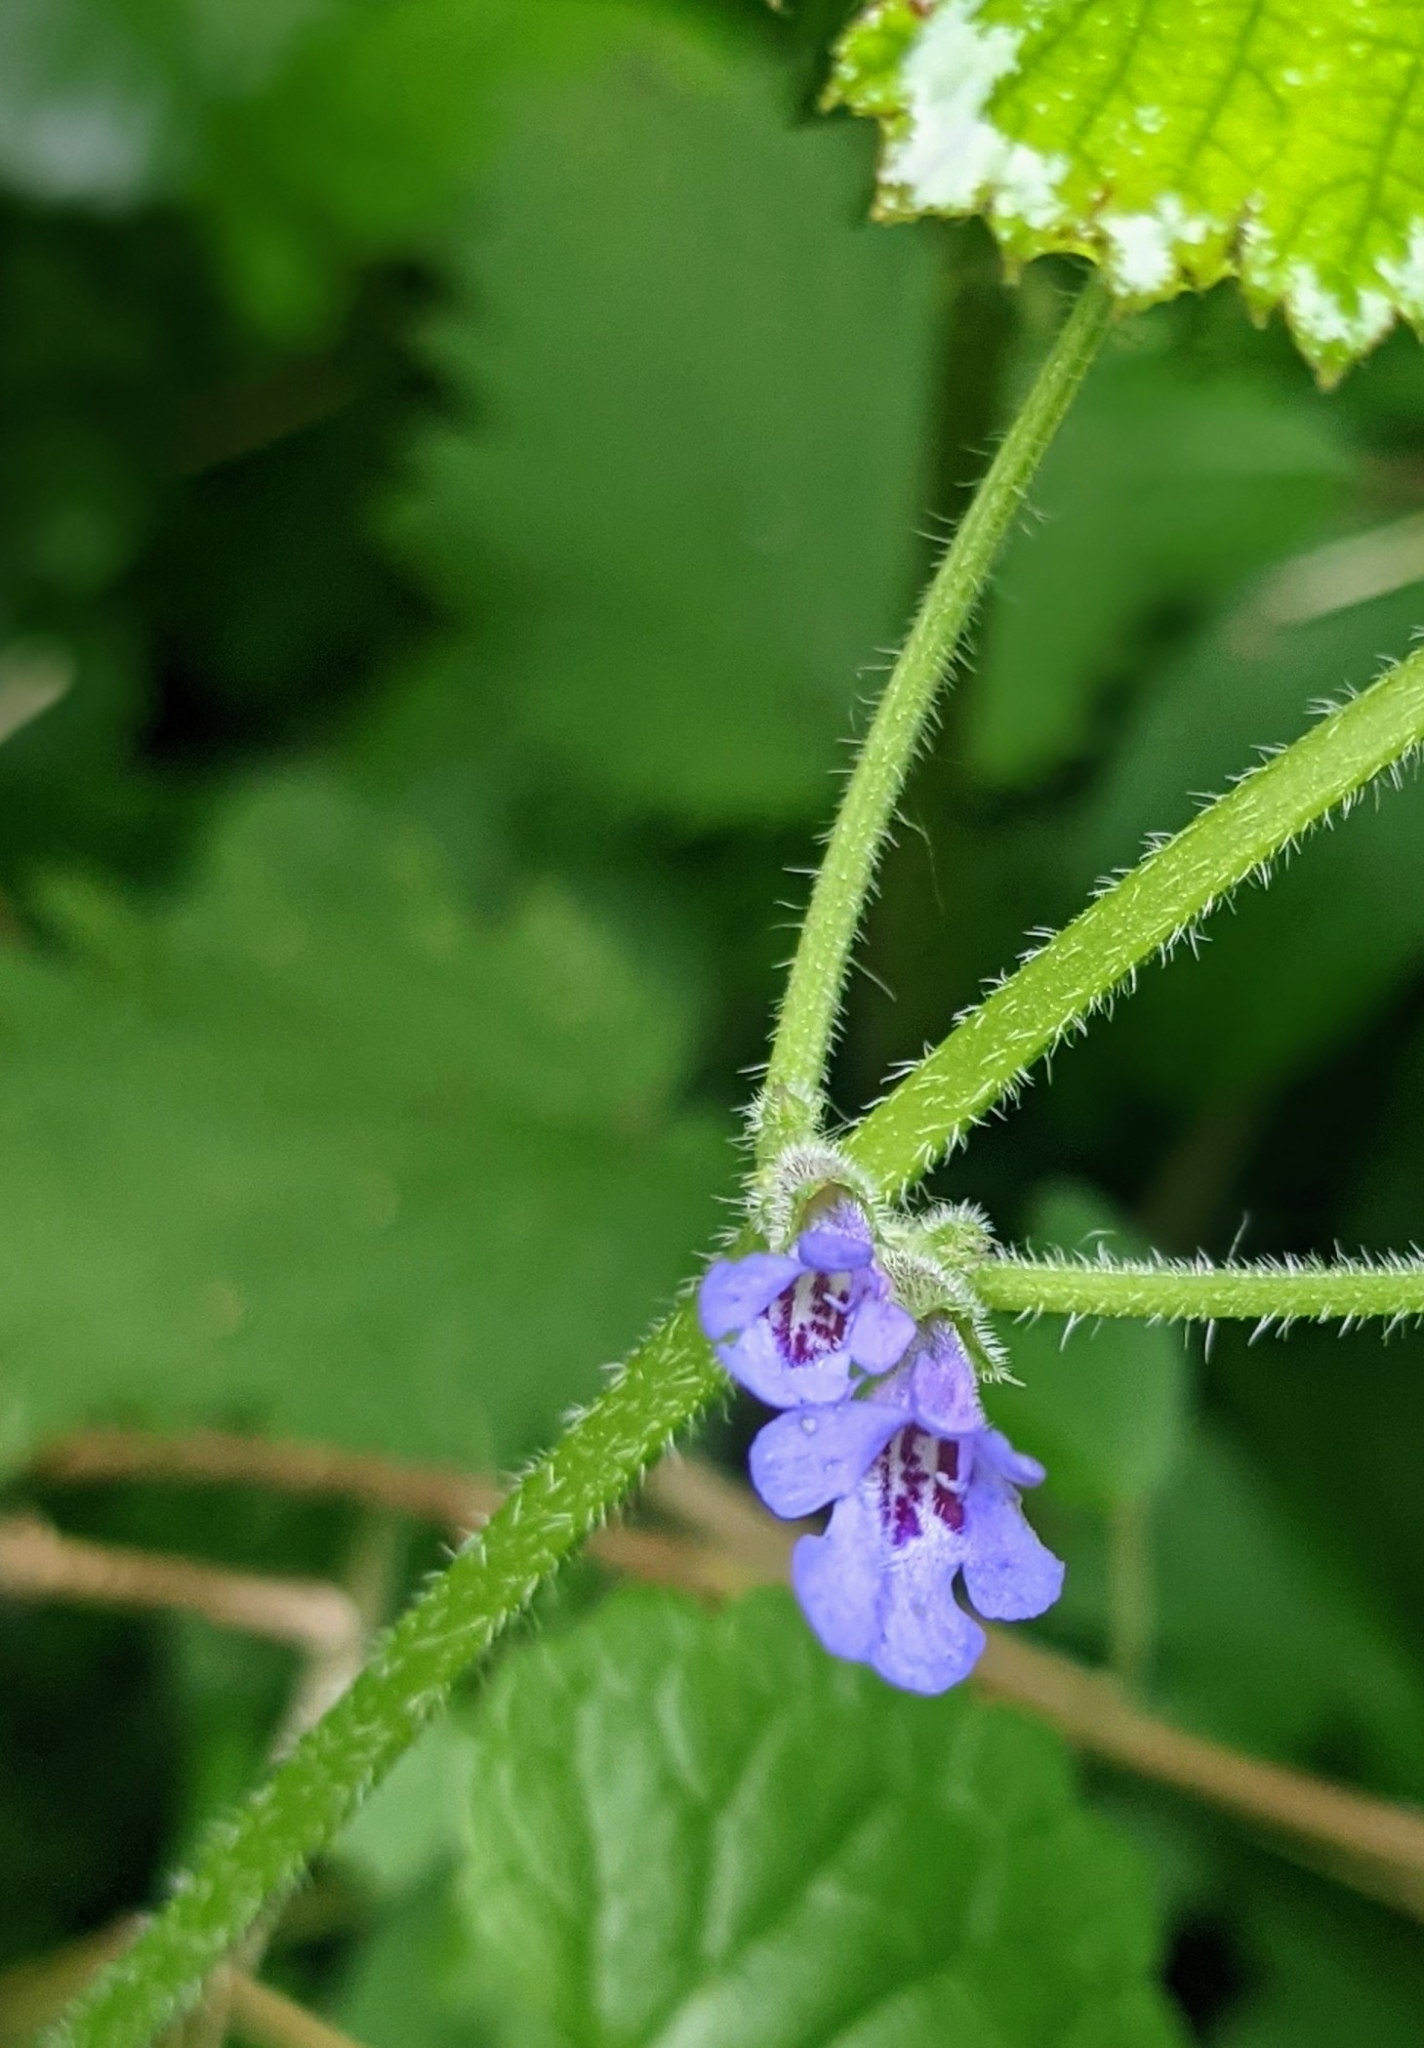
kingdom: Plantae
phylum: Tracheophyta
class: Magnoliopsida
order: Lamiales
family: Lamiaceae
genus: Glechoma
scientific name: Glechoma hederacea
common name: Ground ivy
